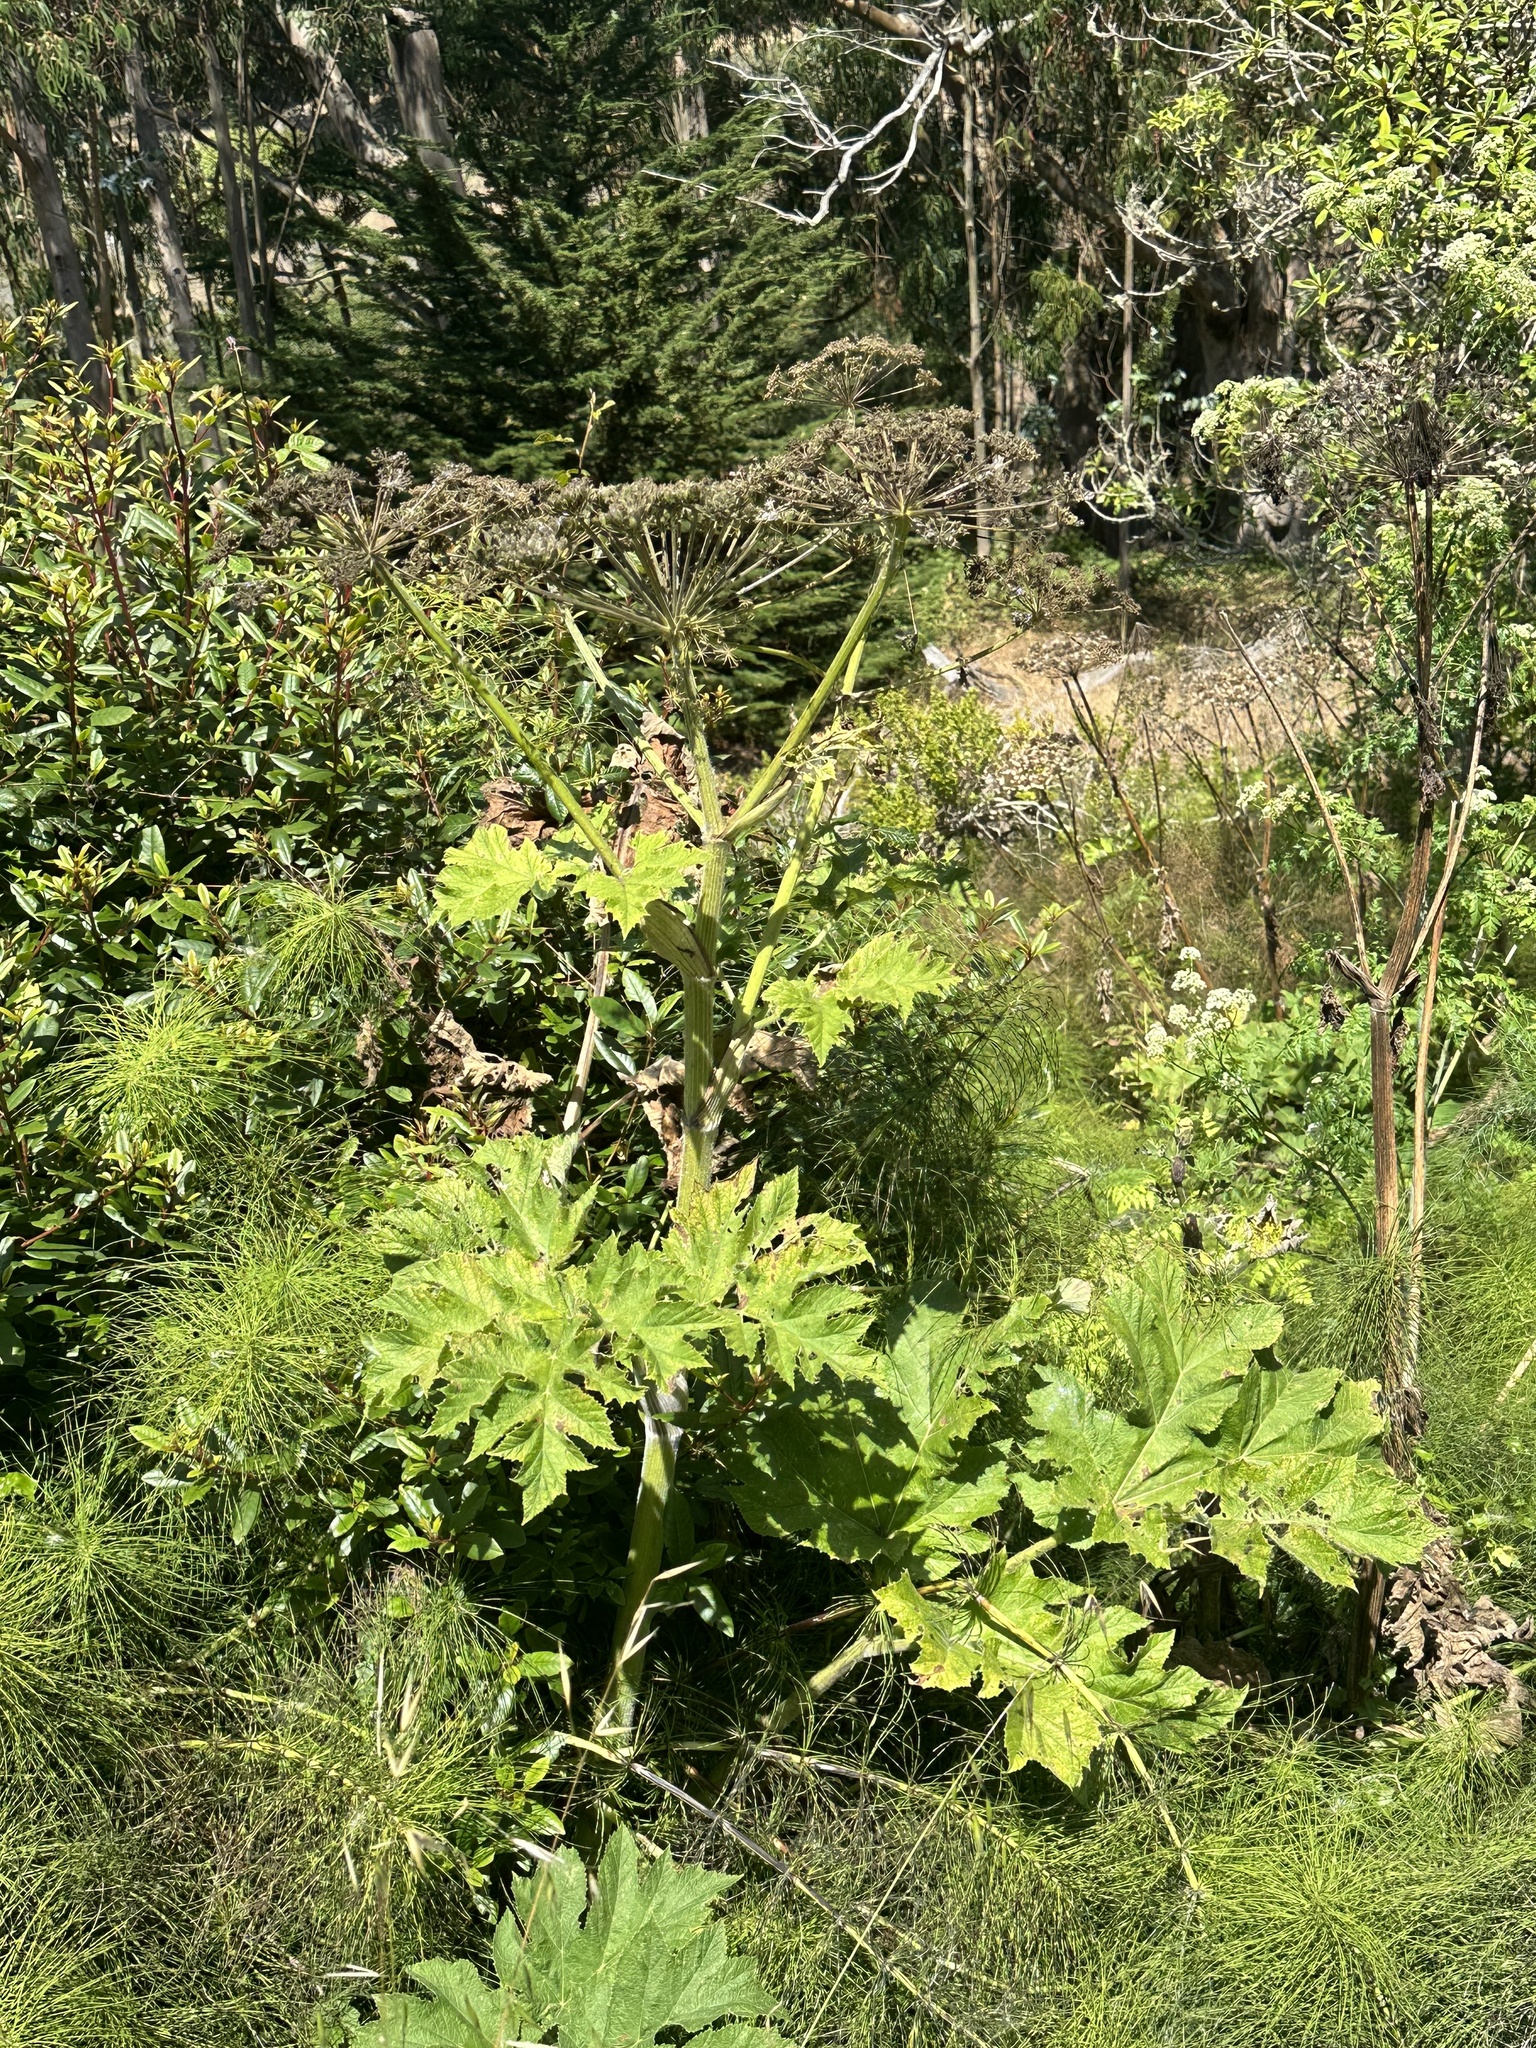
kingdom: Plantae
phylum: Tracheophyta
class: Magnoliopsida
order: Apiales
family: Apiaceae
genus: Heracleum
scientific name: Heracleum maximum
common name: American cow parsnip
